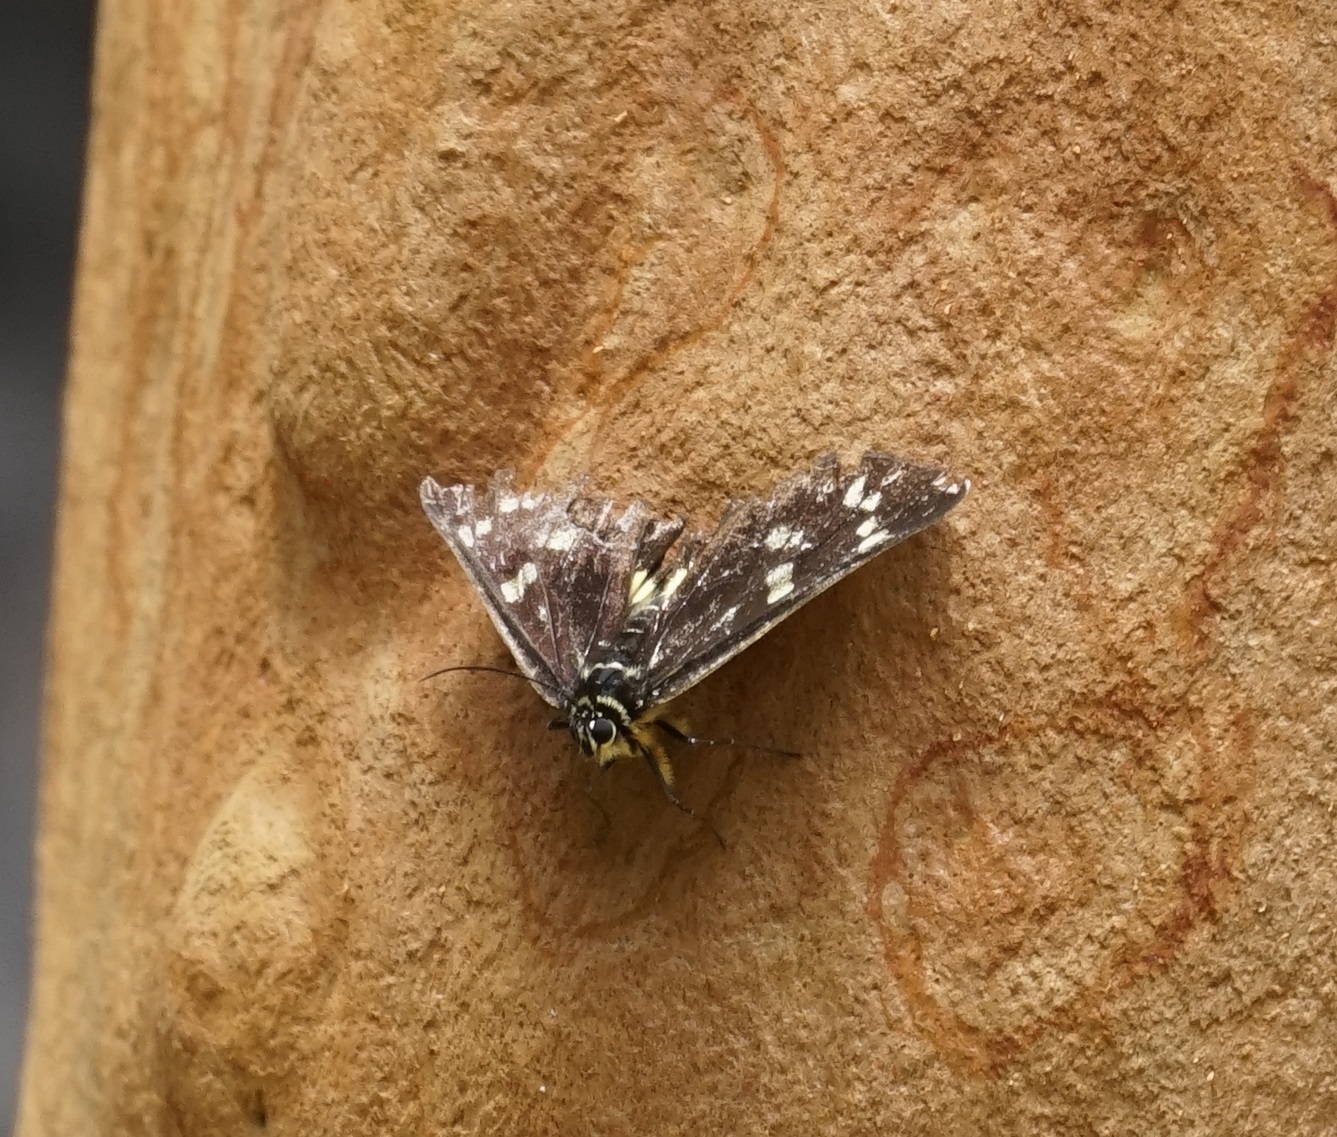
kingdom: Animalia
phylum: Arthropoda
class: Insecta
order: Lepidoptera
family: Noctuidae
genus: Cruria
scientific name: Cruria synopla
